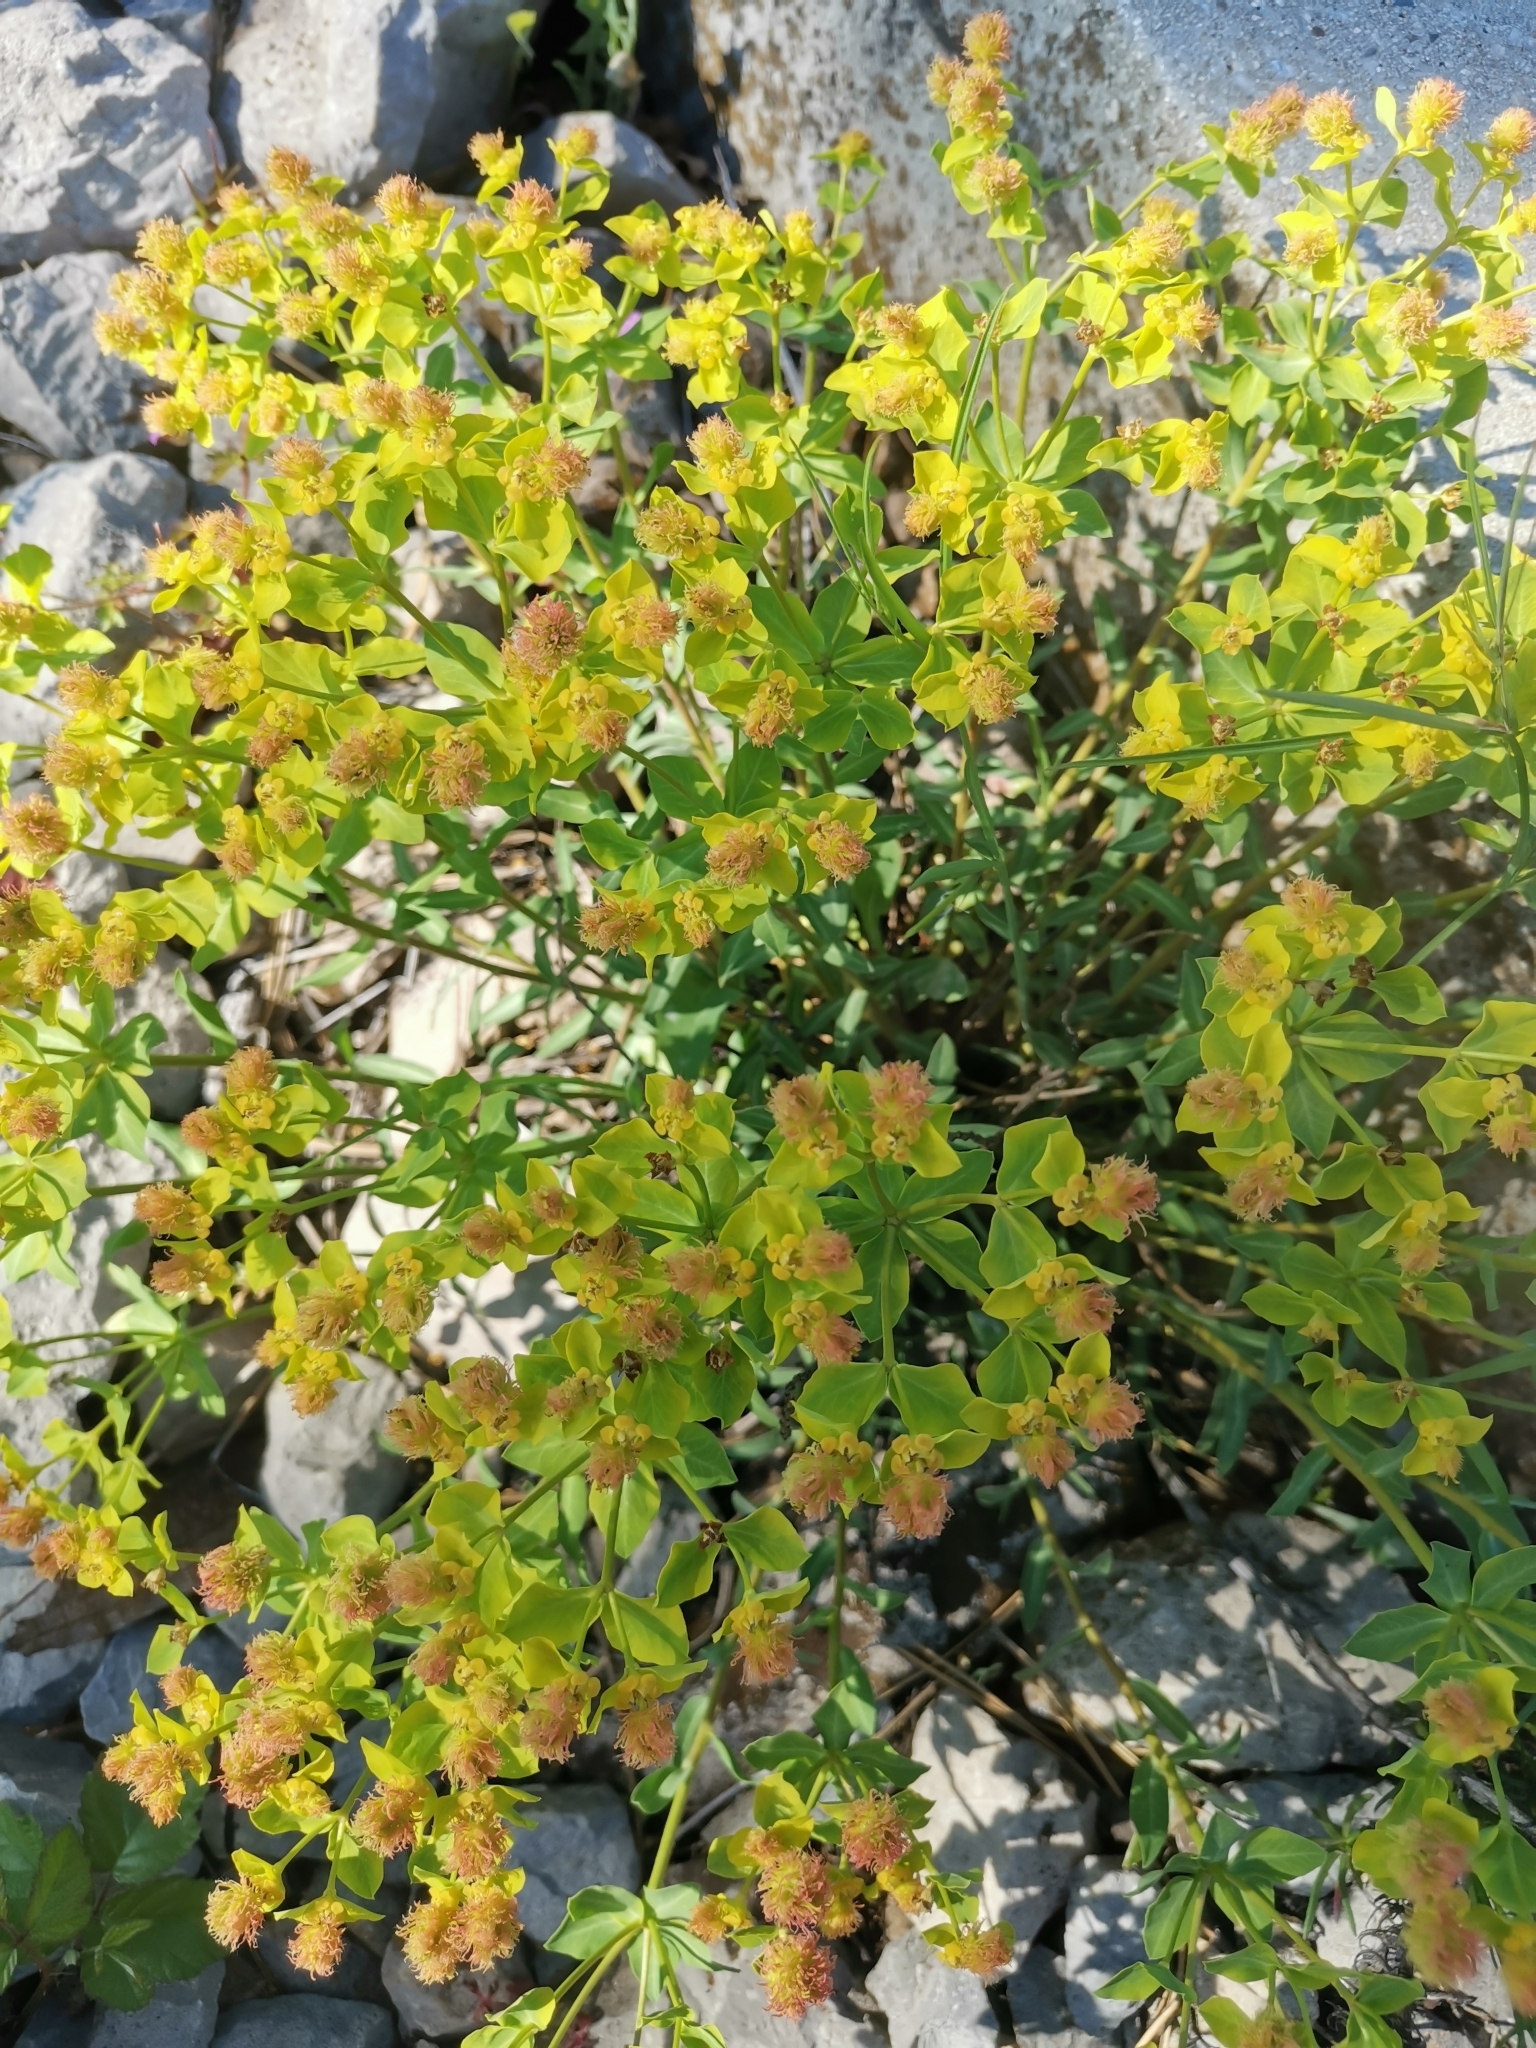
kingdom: Plantae
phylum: Tracheophyta
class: Magnoliopsida
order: Malpighiales
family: Euphorbiaceae
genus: Euphorbia
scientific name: Euphorbia fragifera
